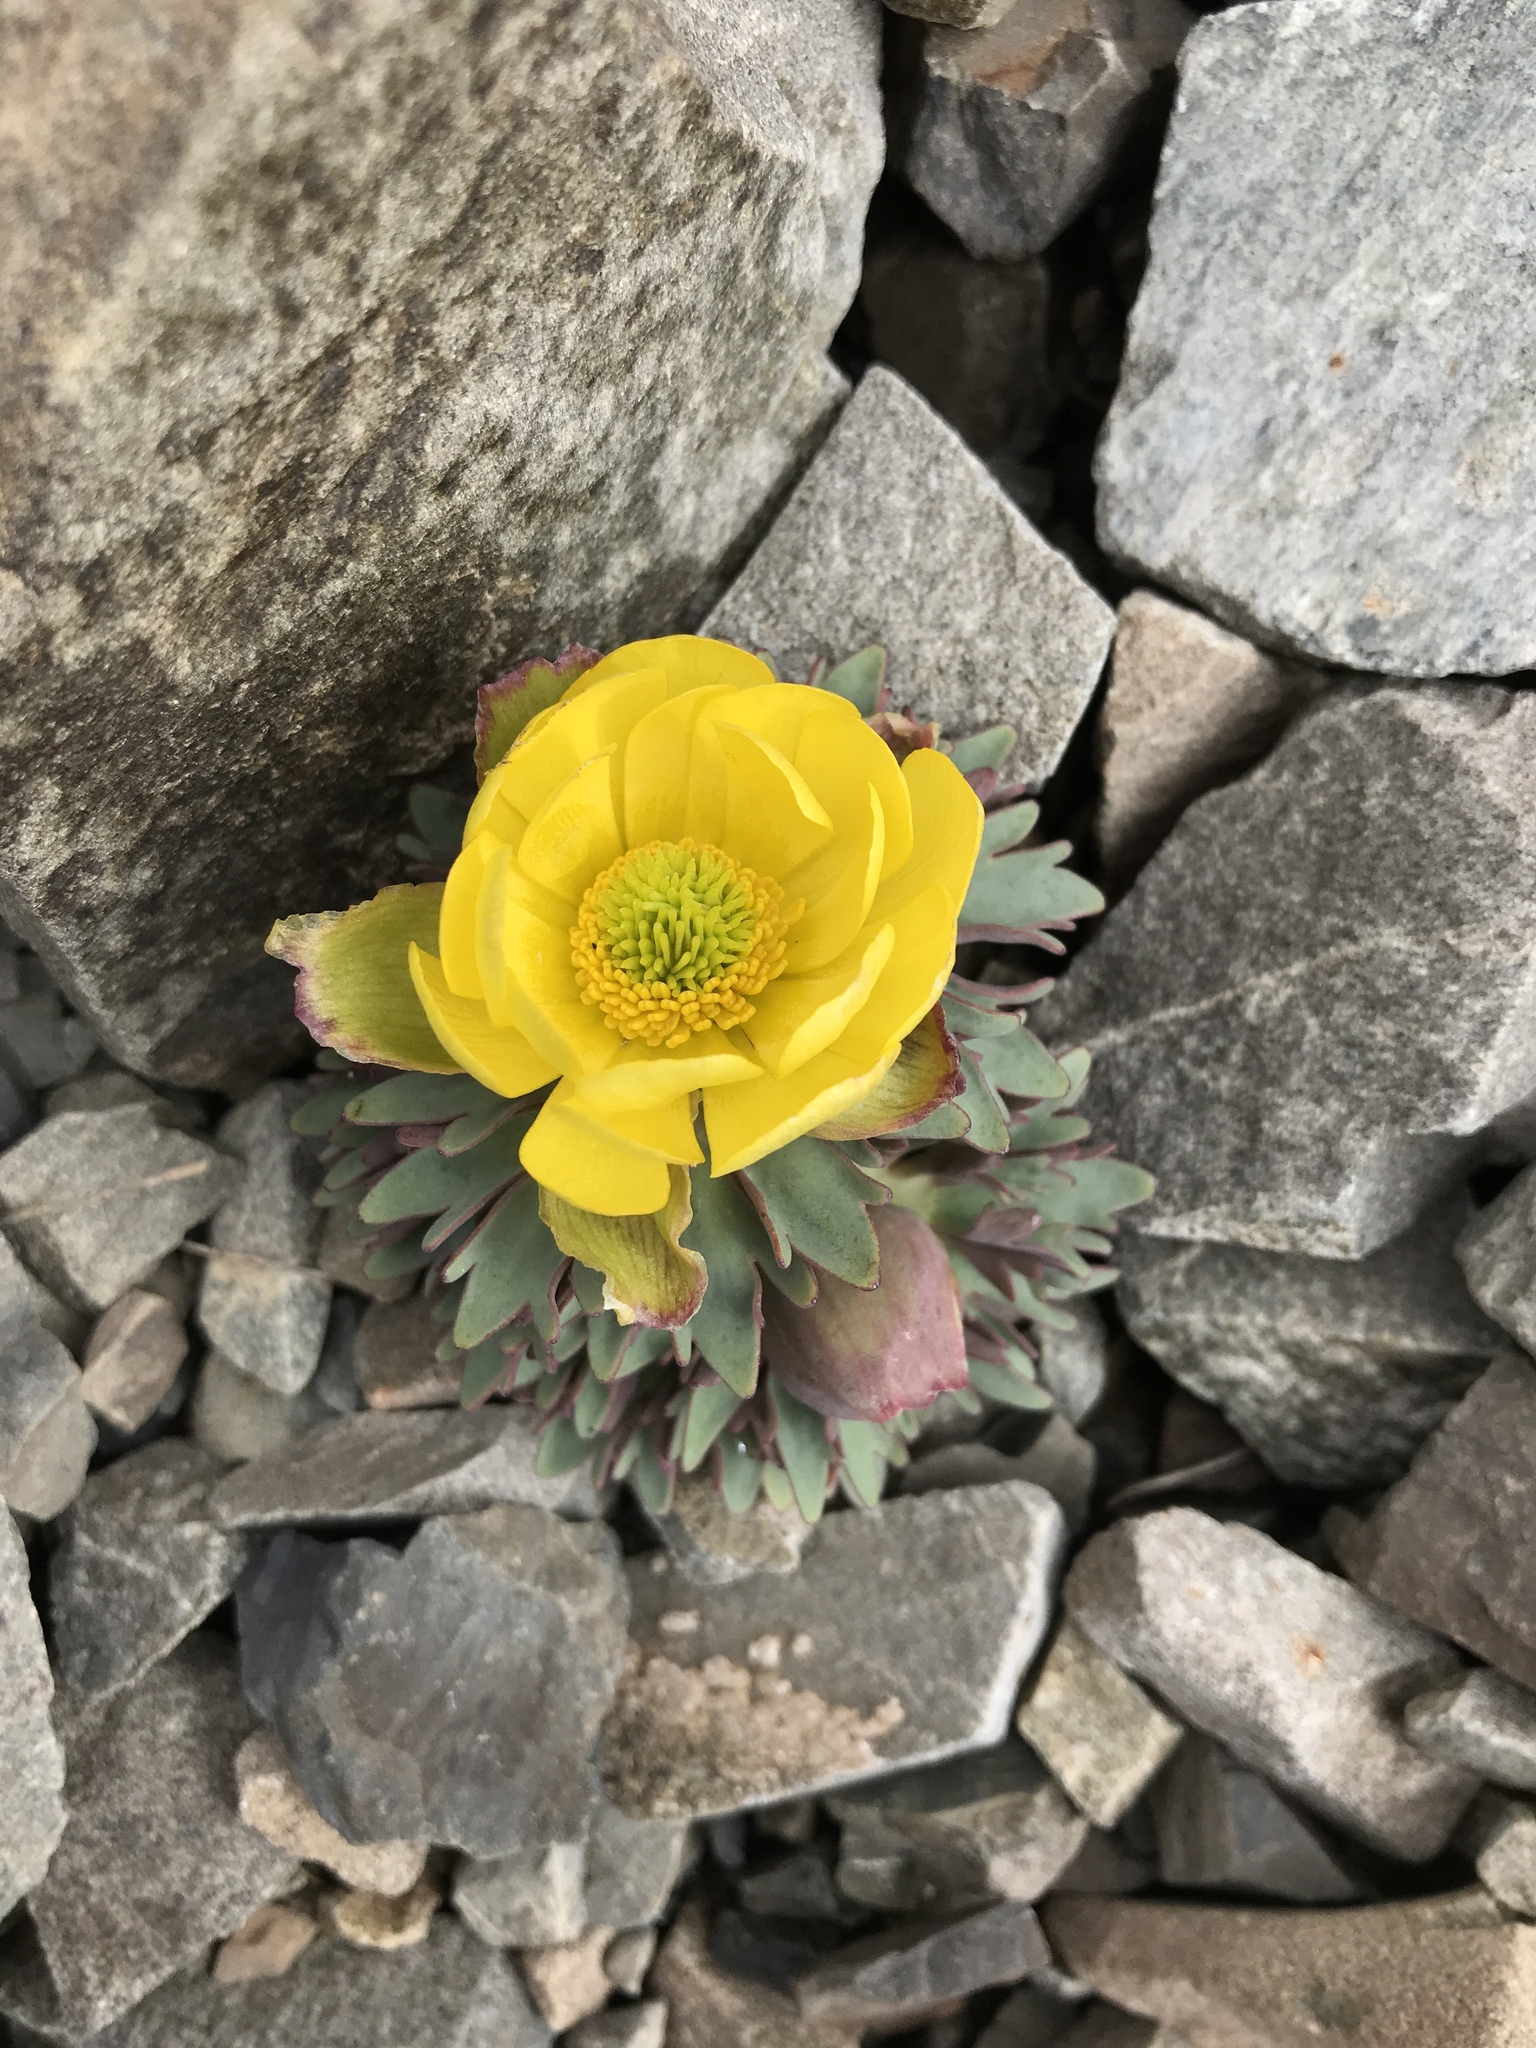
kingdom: Plantae
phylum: Tracheophyta
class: Magnoliopsida
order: Ranunculales
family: Ranunculaceae
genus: Ranunculus
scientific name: Ranunculus haastii
